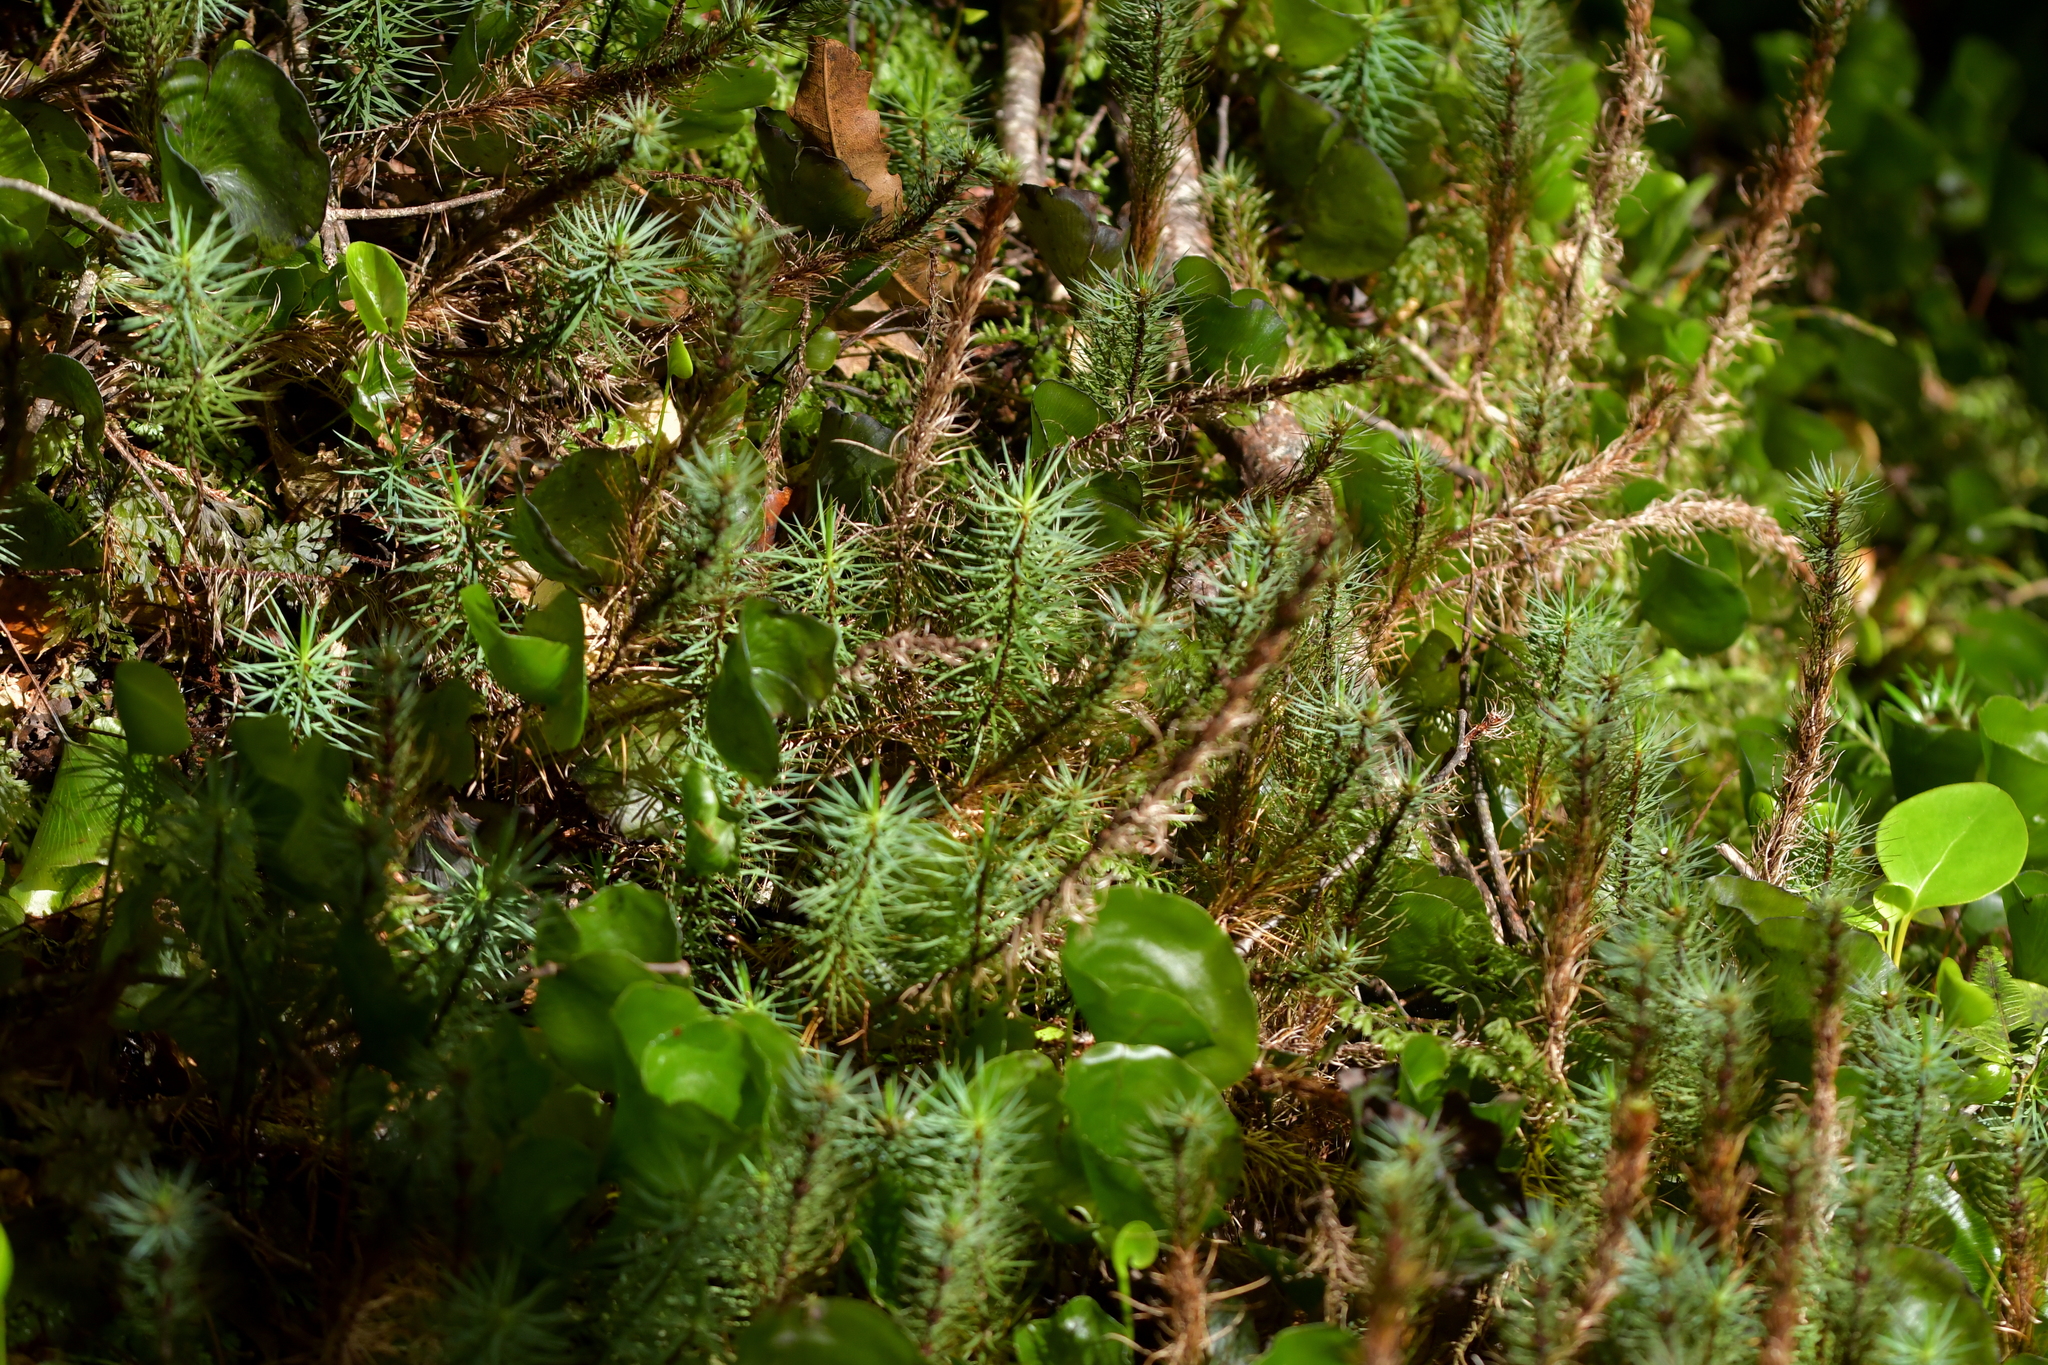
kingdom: Plantae
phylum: Bryophyta
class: Polytrichopsida
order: Polytrichales
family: Polytrichaceae
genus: Dawsonia
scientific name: Dawsonia superba
